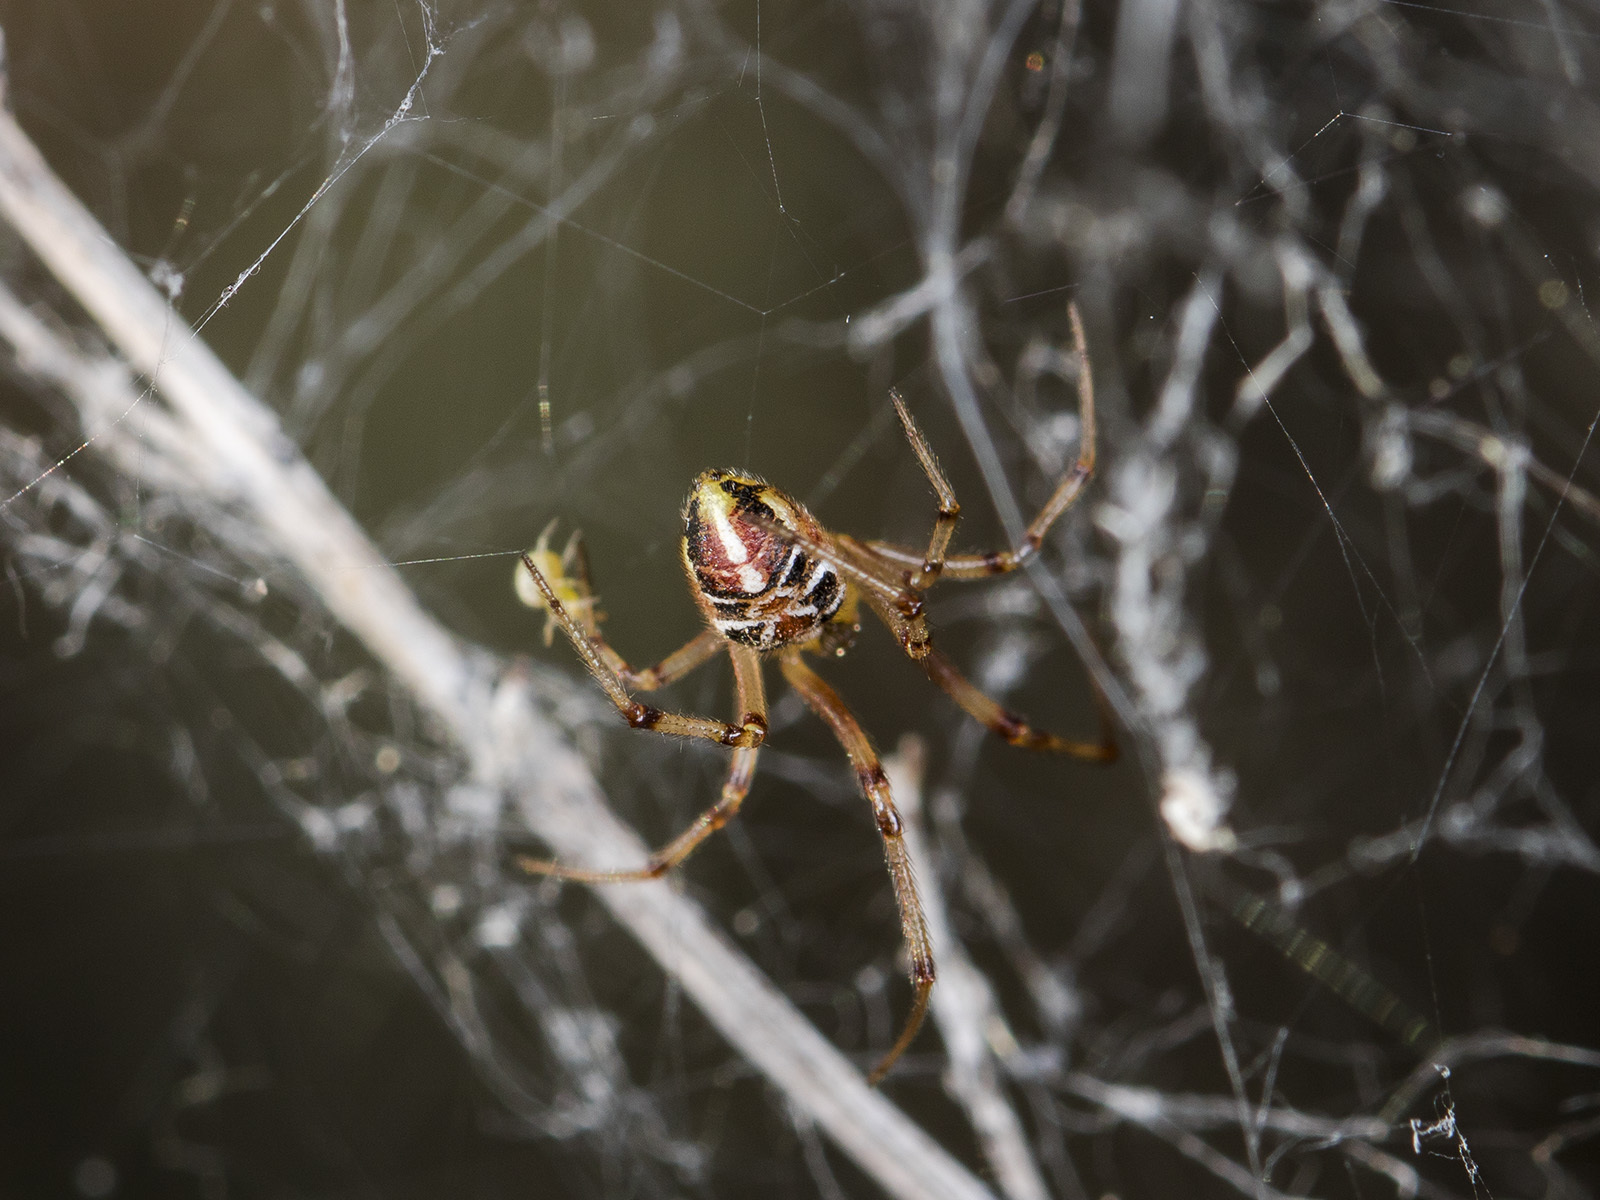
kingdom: Animalia
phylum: Arthropoda
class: Arachnida
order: Araneae
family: Theridiidae
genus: Phylloneta
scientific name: Phylloneta impressa
